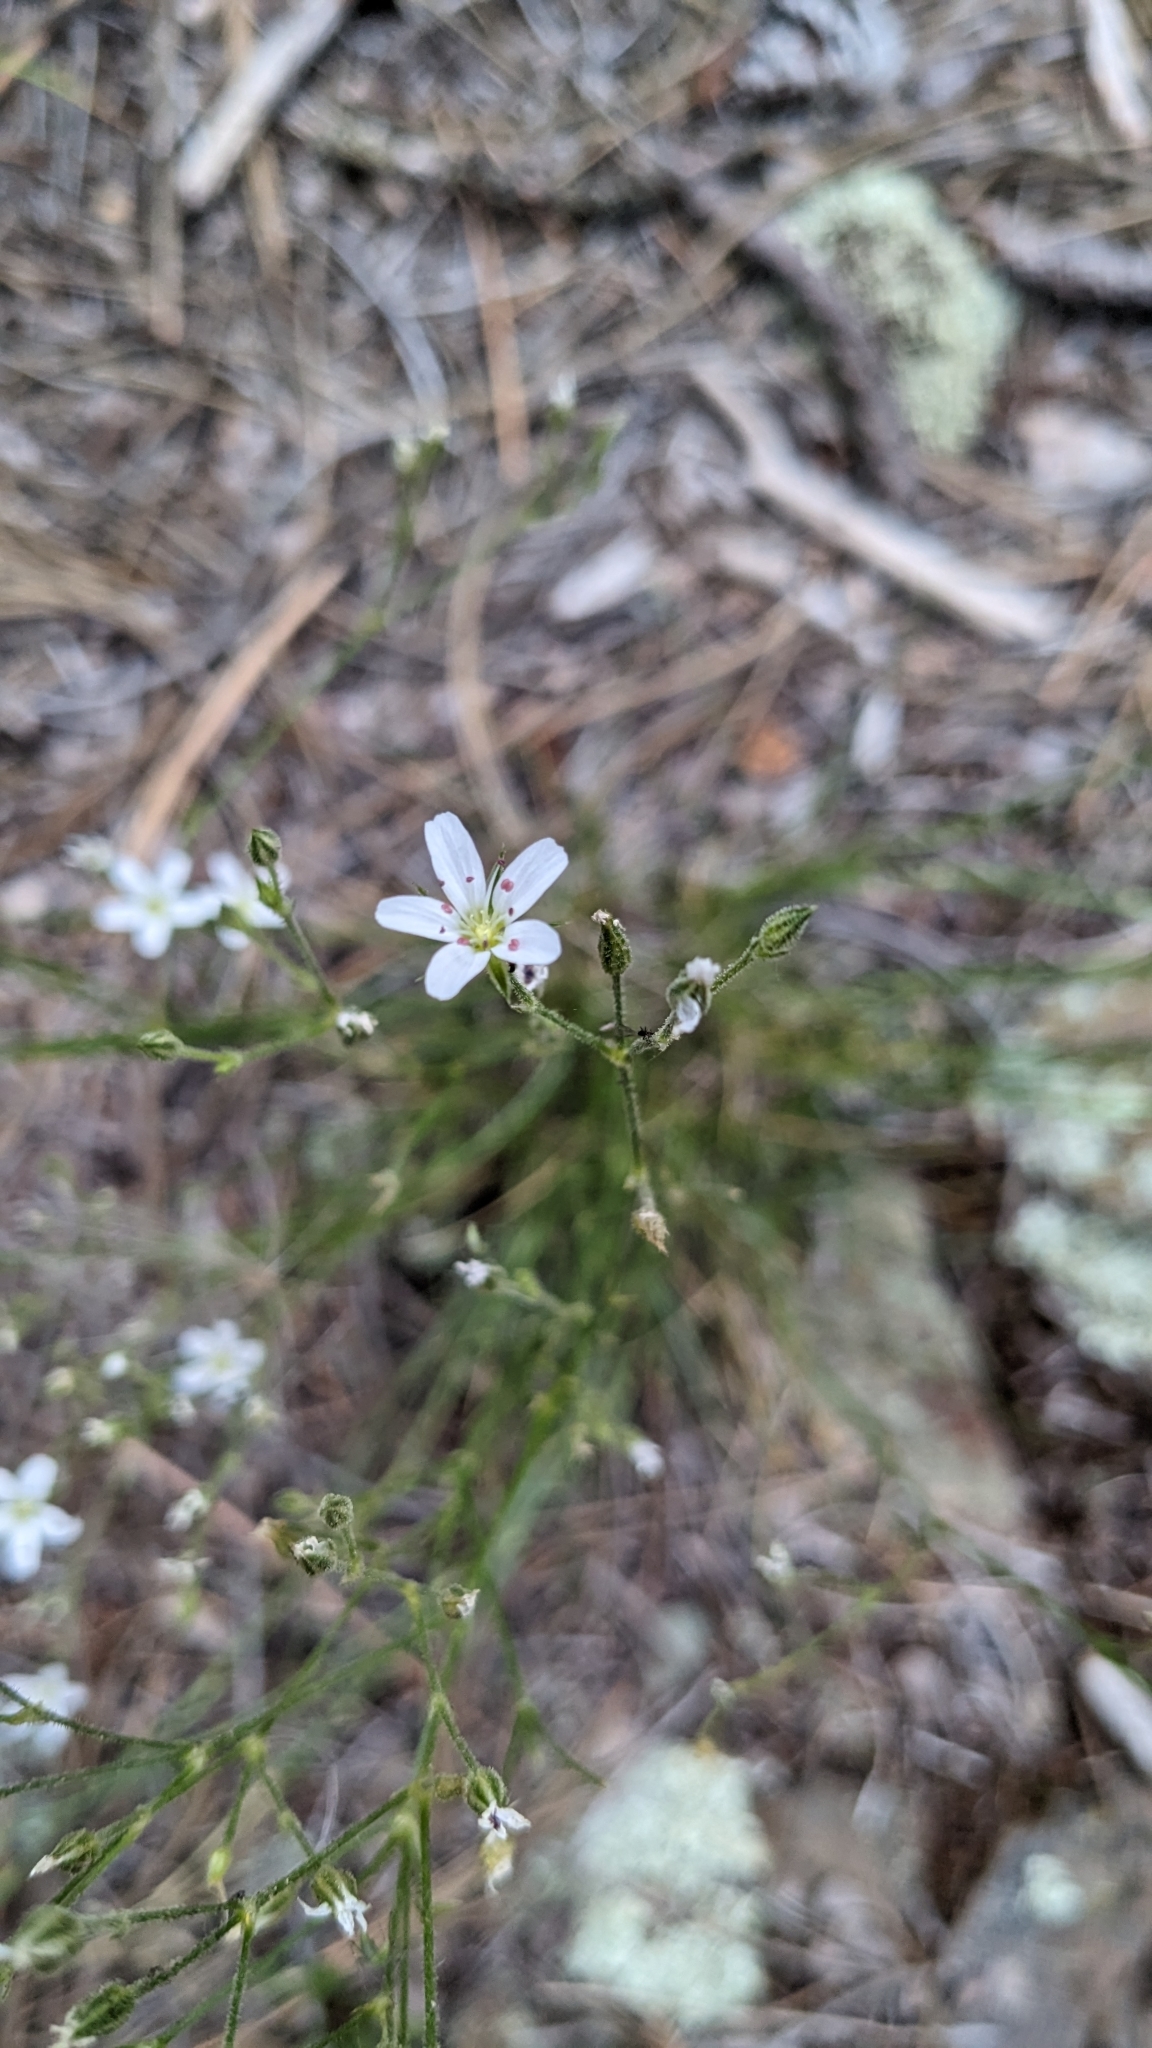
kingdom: Plantae
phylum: Tracheophyta
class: Magnoliopsida
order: Caryophyllales
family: Caryophyllaceae
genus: Eremogone
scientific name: Eremogone fendleri
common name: Fendler's sandwort
